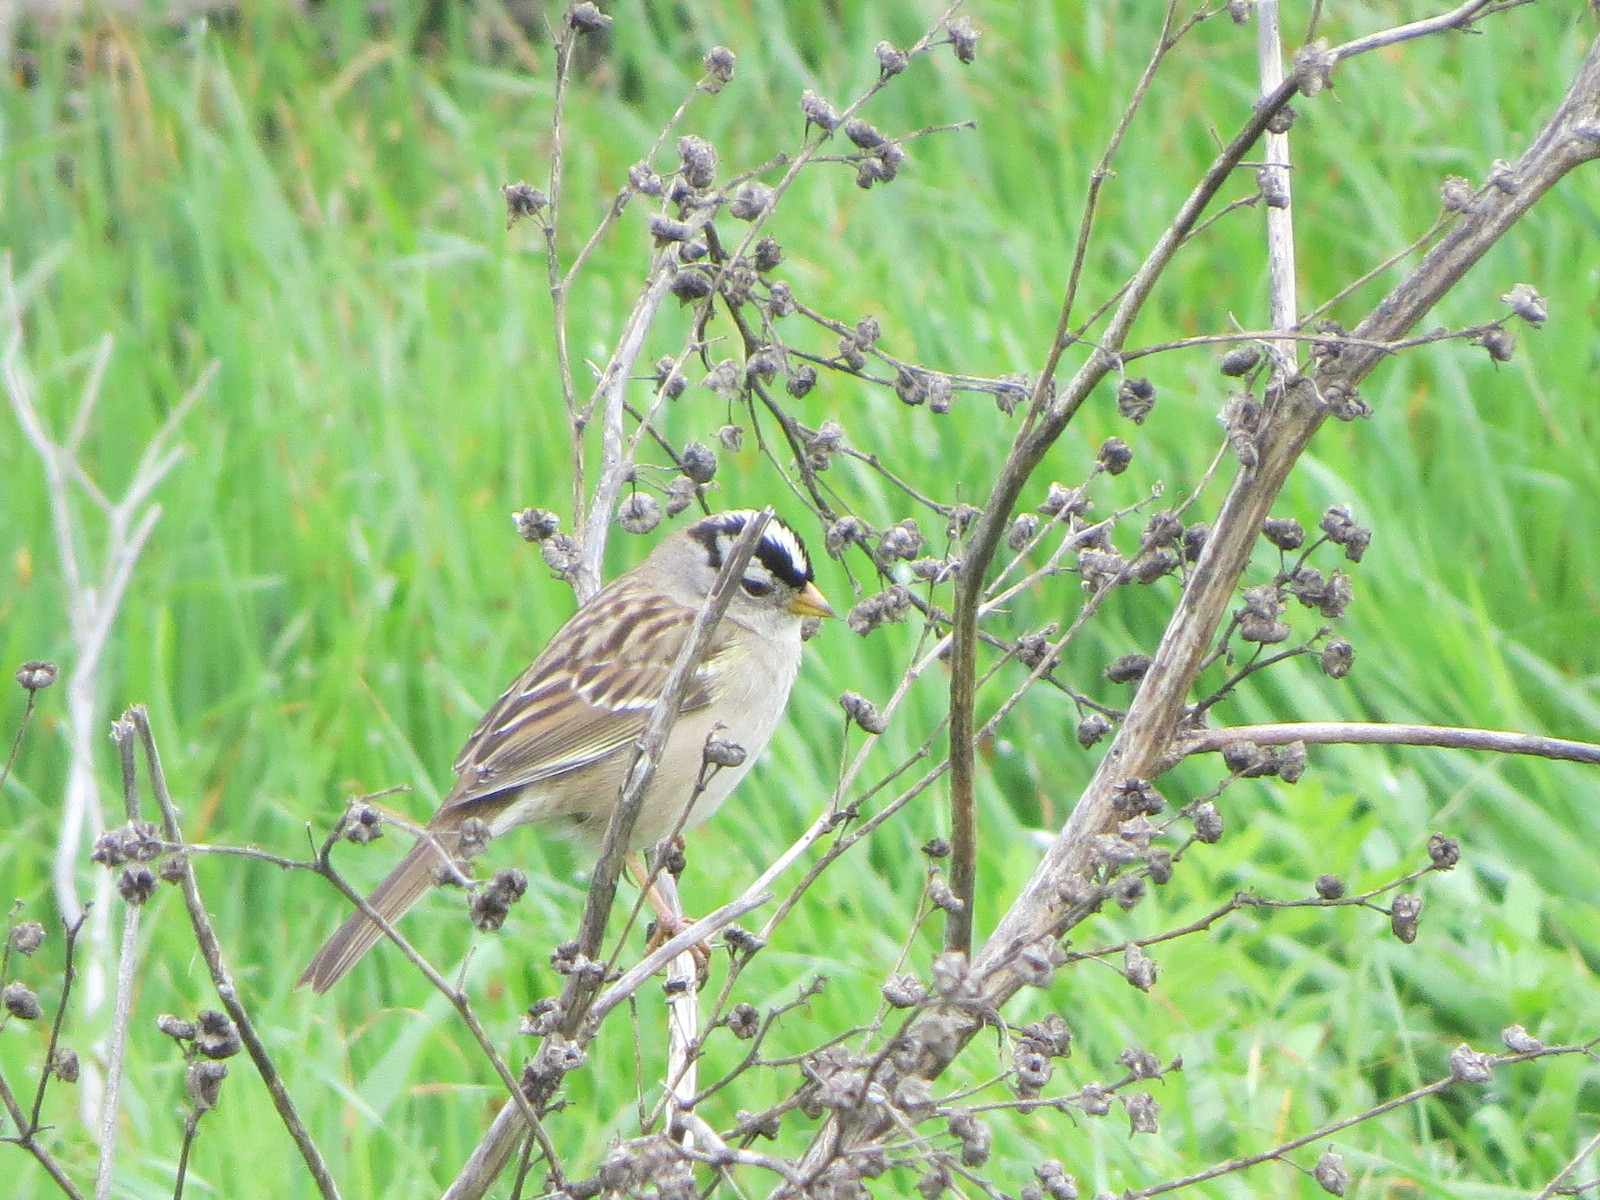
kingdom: Animalia
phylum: Chordata
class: Aves
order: Passeriformes
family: Passerellidae
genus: Zonotrichia
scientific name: Zonotrichia leucophrys
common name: White-crowned sparrow
